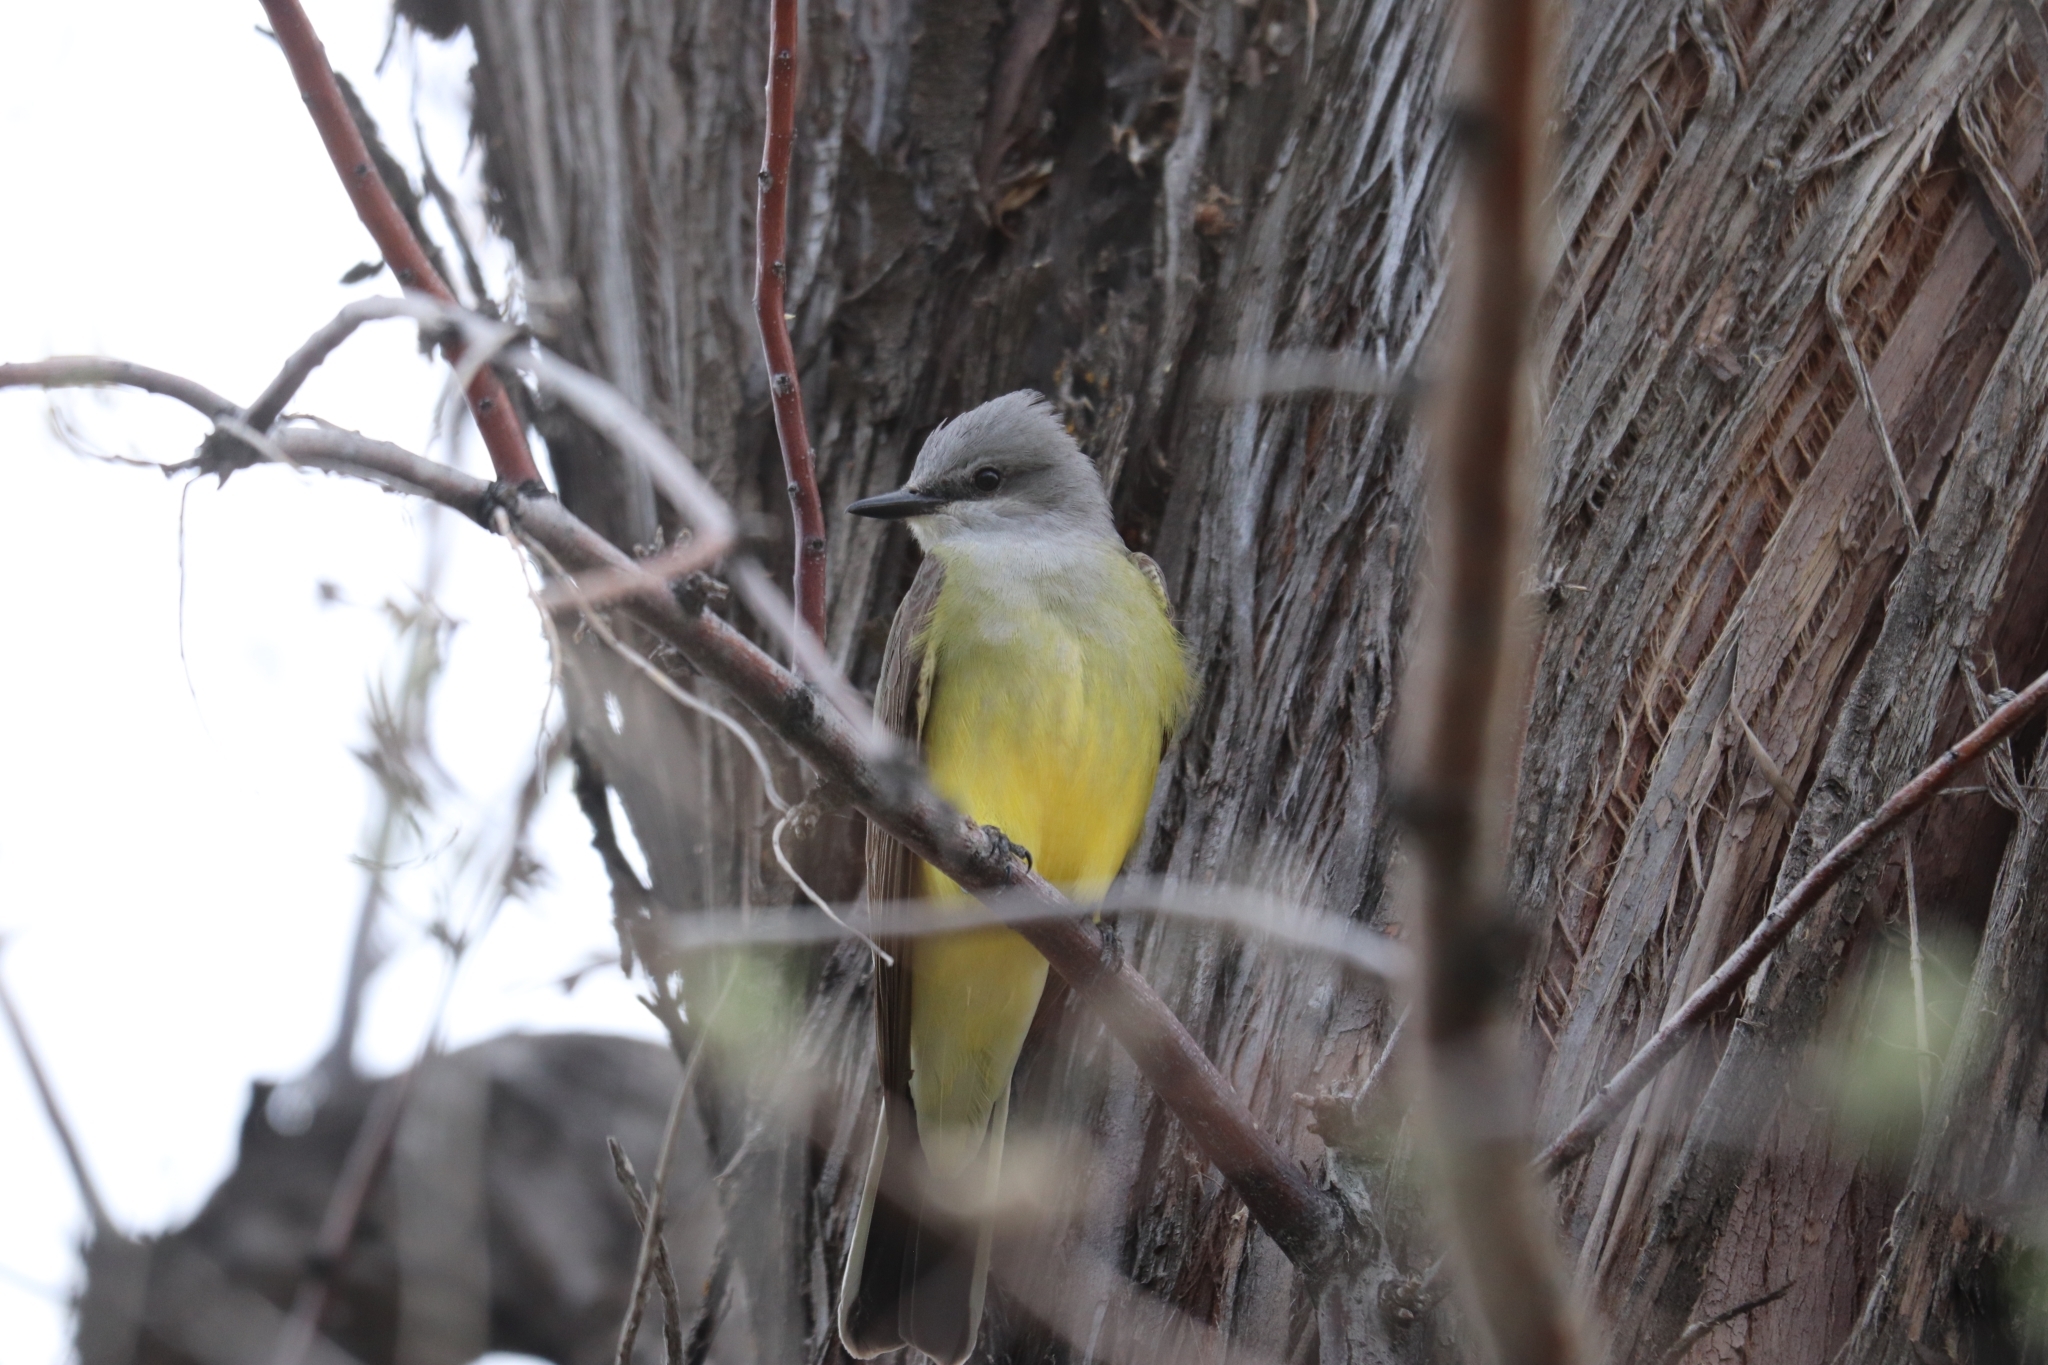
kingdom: Animalia
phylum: Chordata
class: Aves
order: Passeriformes
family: Tyrannidae
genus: Tyrannus
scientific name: Tyrannus verticalis
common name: Western kingbird
